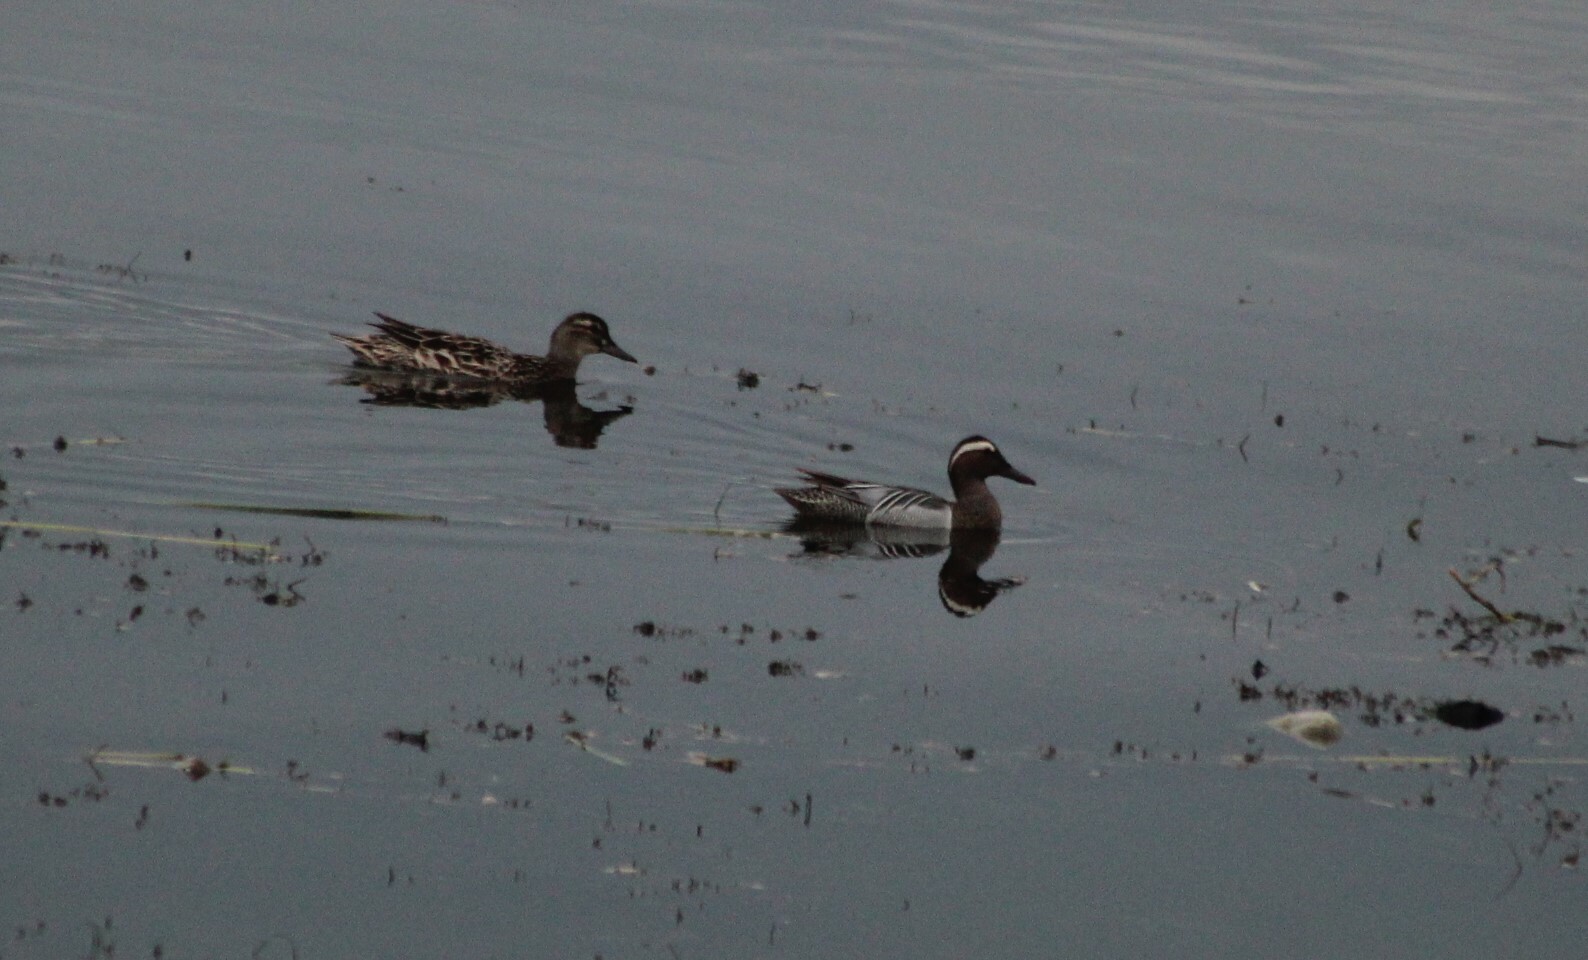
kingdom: Animalia
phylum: Chordata
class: Aves
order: Anseriformes
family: Anatidae
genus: Spatula
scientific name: Spatula querquedula
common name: Garganey
